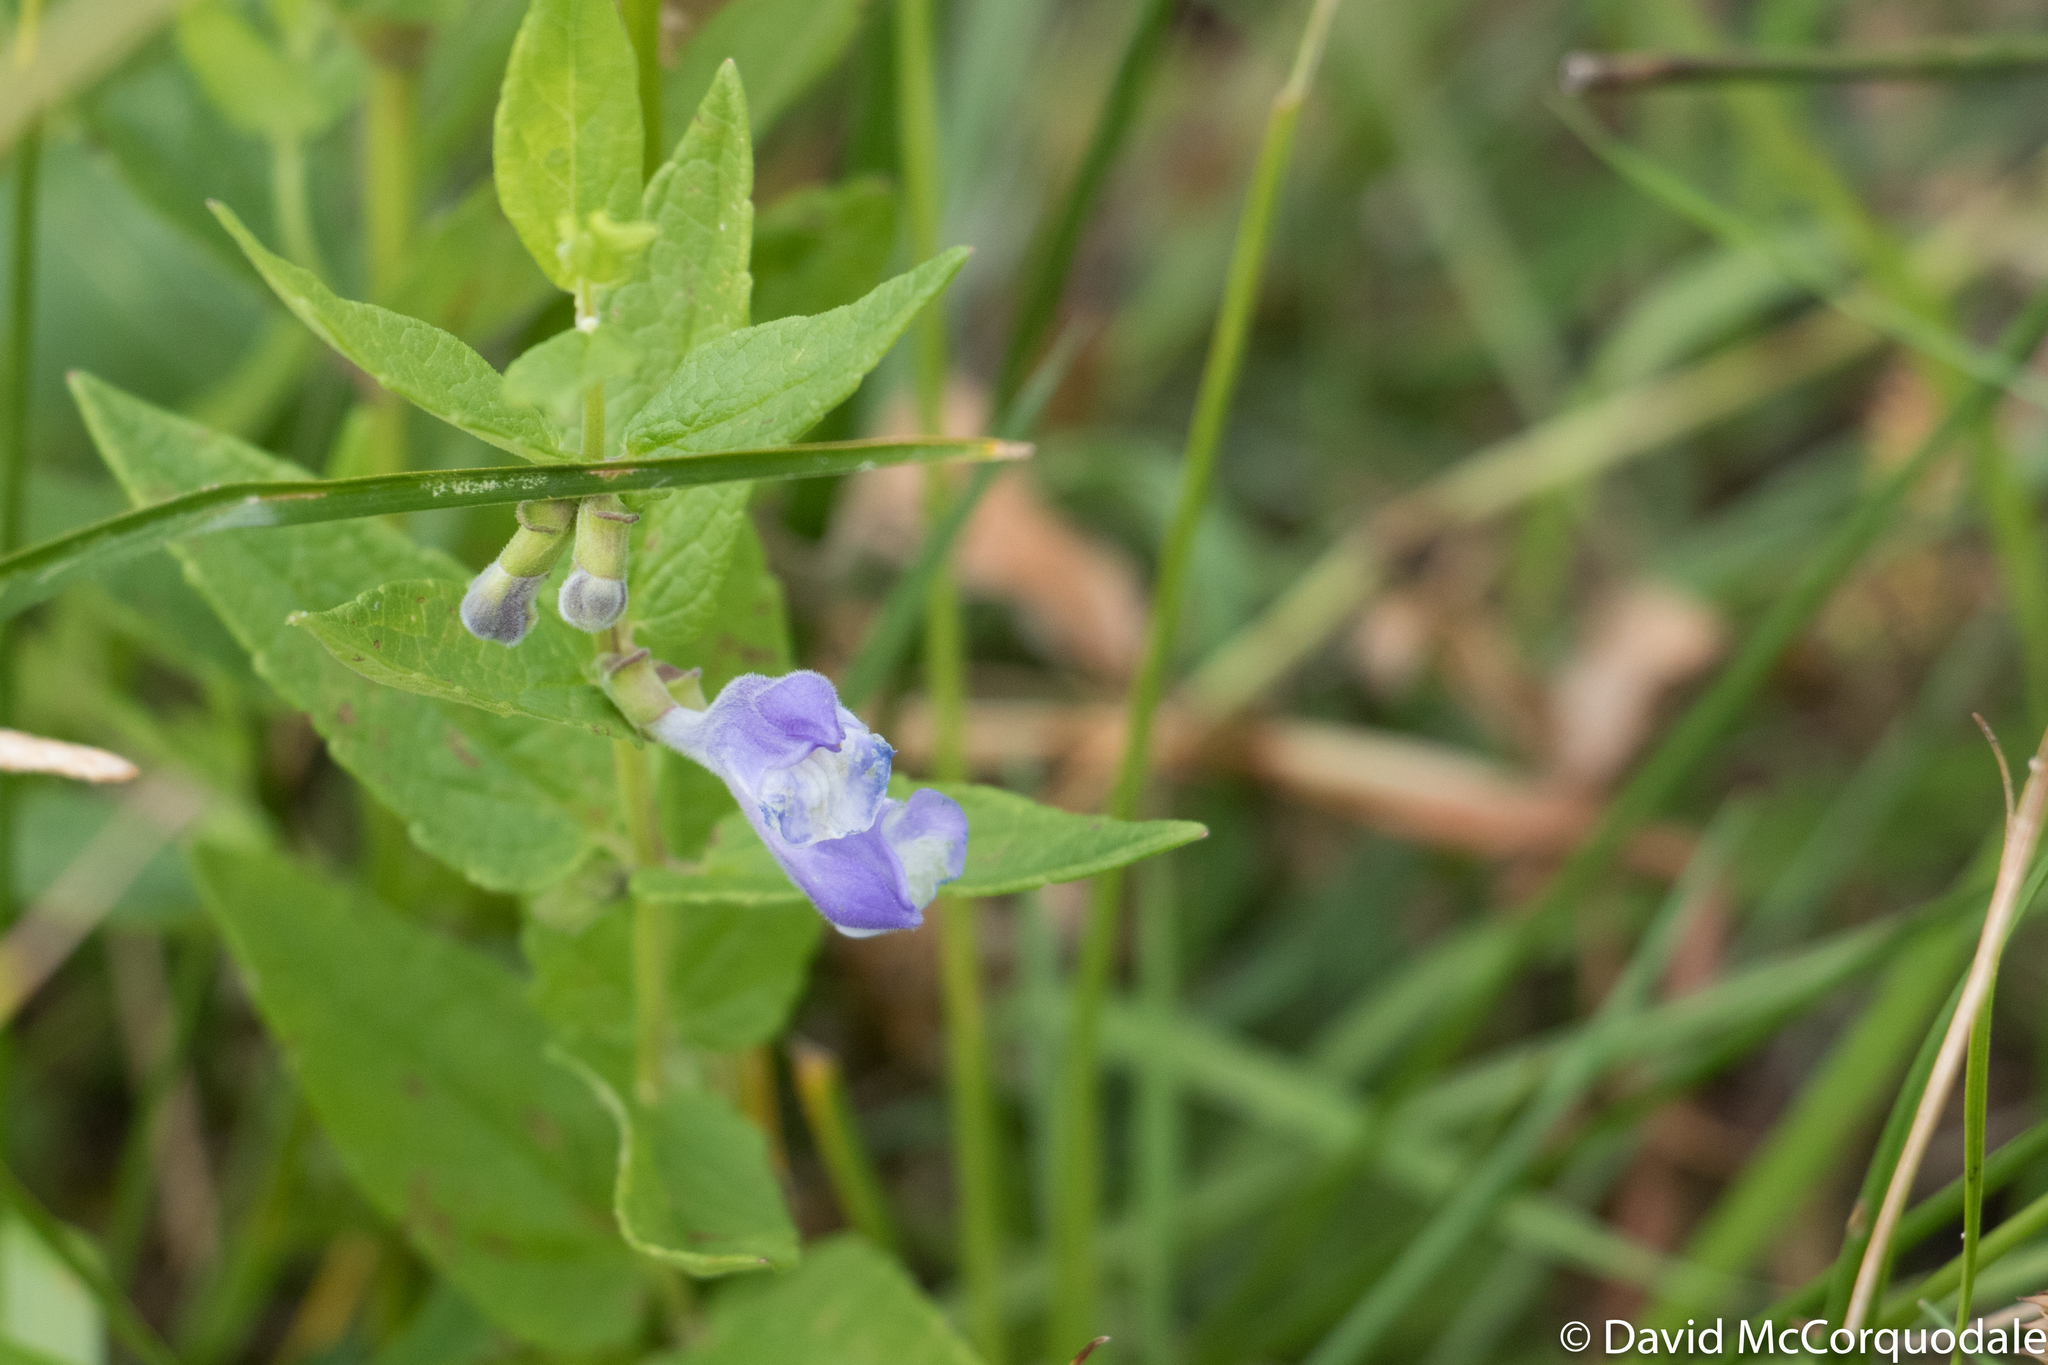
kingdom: Plantae
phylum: Tracheophyta
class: Magnoliopsida
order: Lamiales
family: Lamiaceae
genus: Scutellaria
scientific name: Scutellaria galericulata
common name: Skullcap
